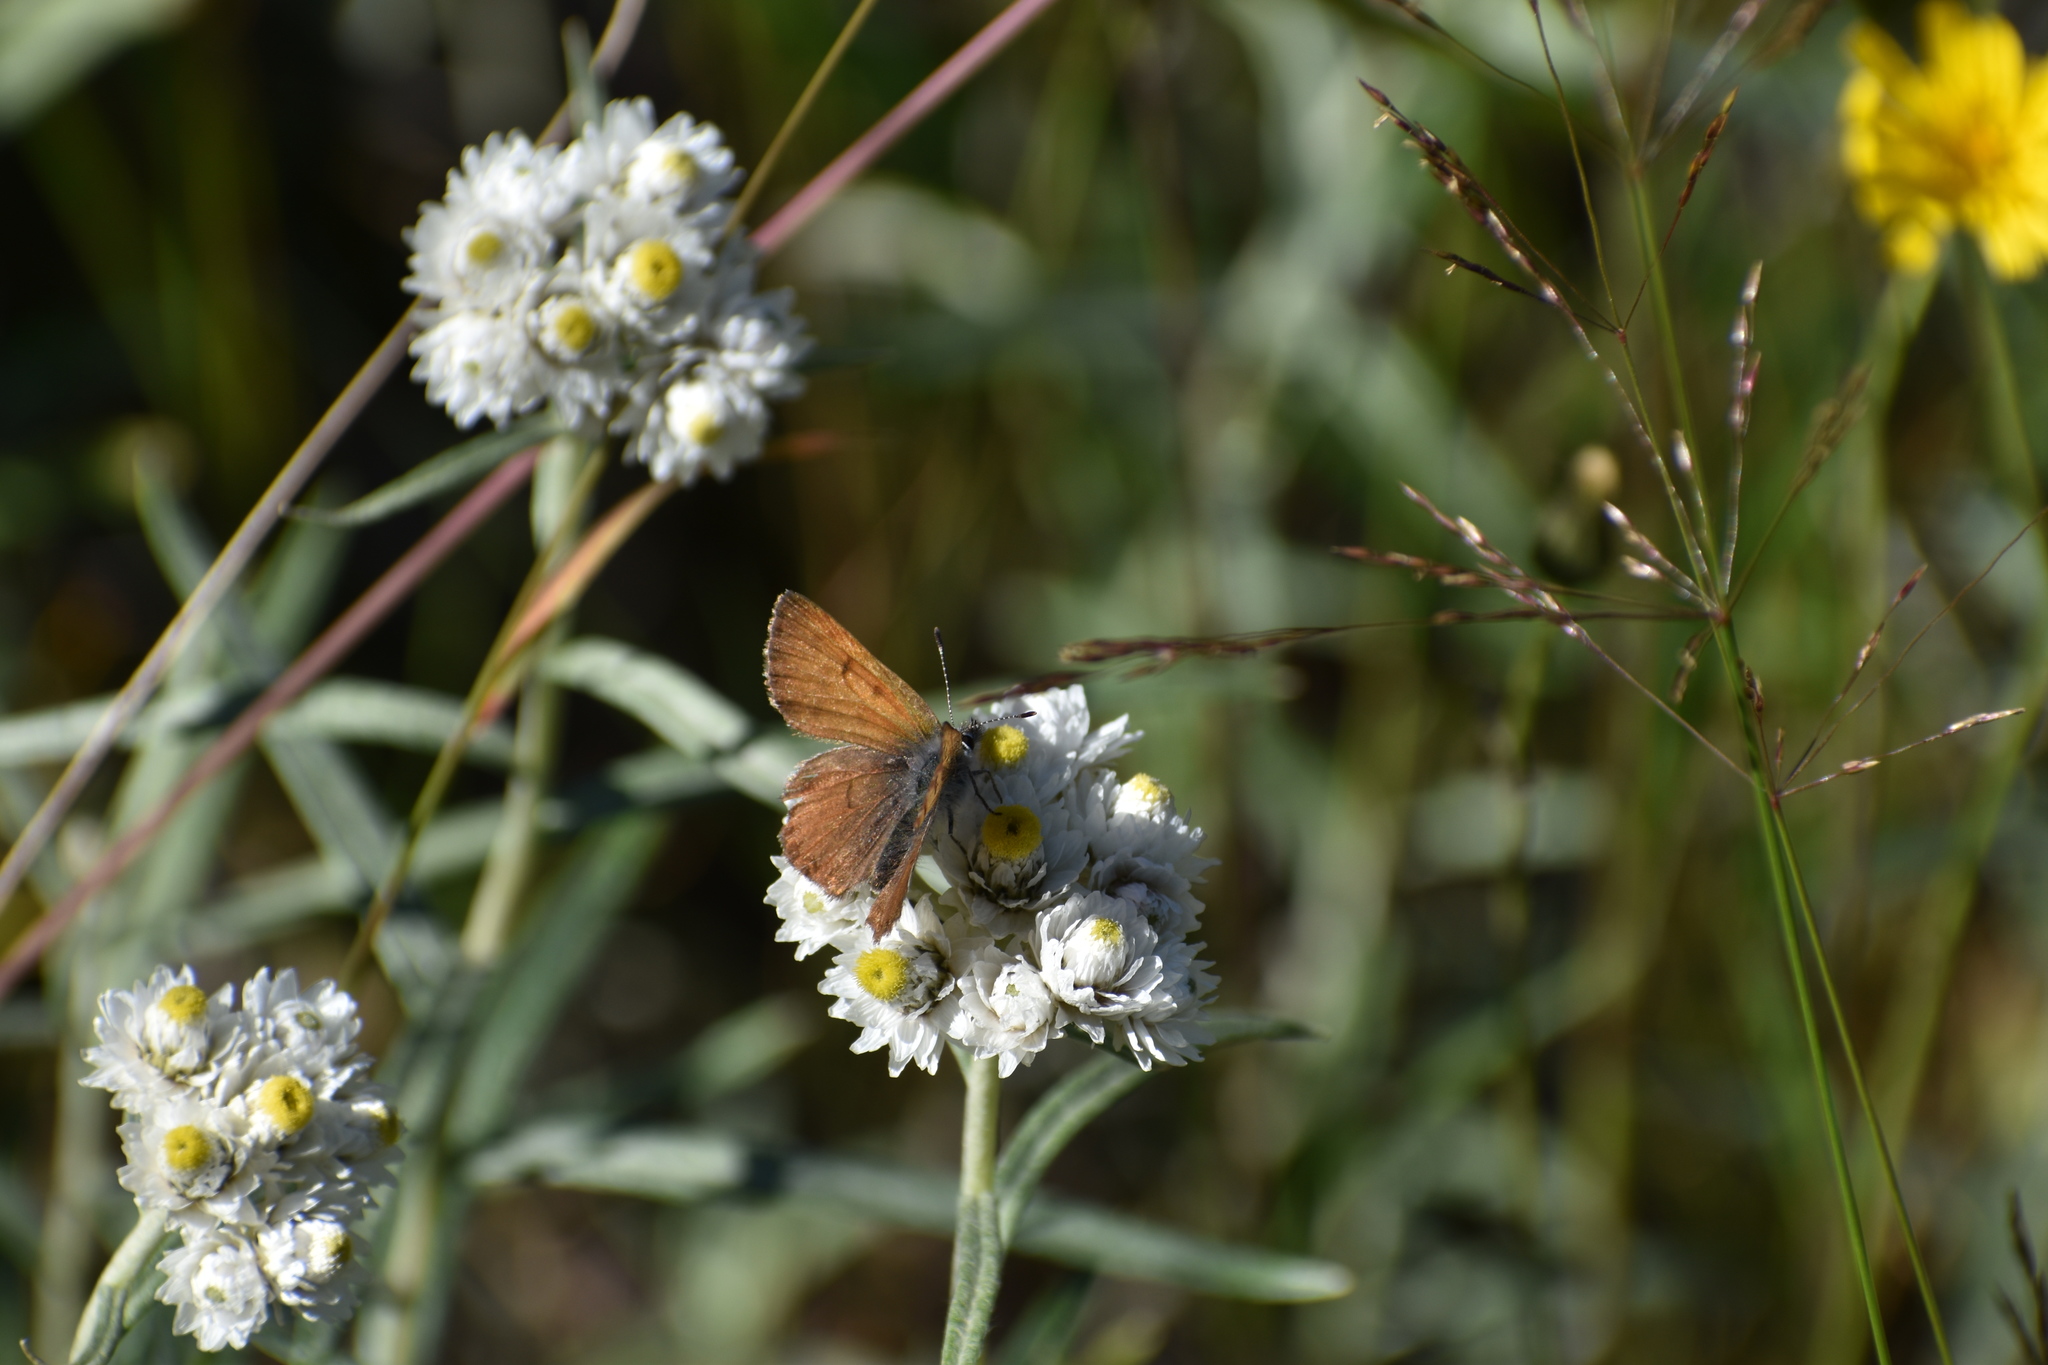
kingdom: Animalia
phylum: Arthropoda
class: Insecta
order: Lepidoptera
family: Lycaenidae
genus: Tharsalea
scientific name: Tharsalea mariposa
